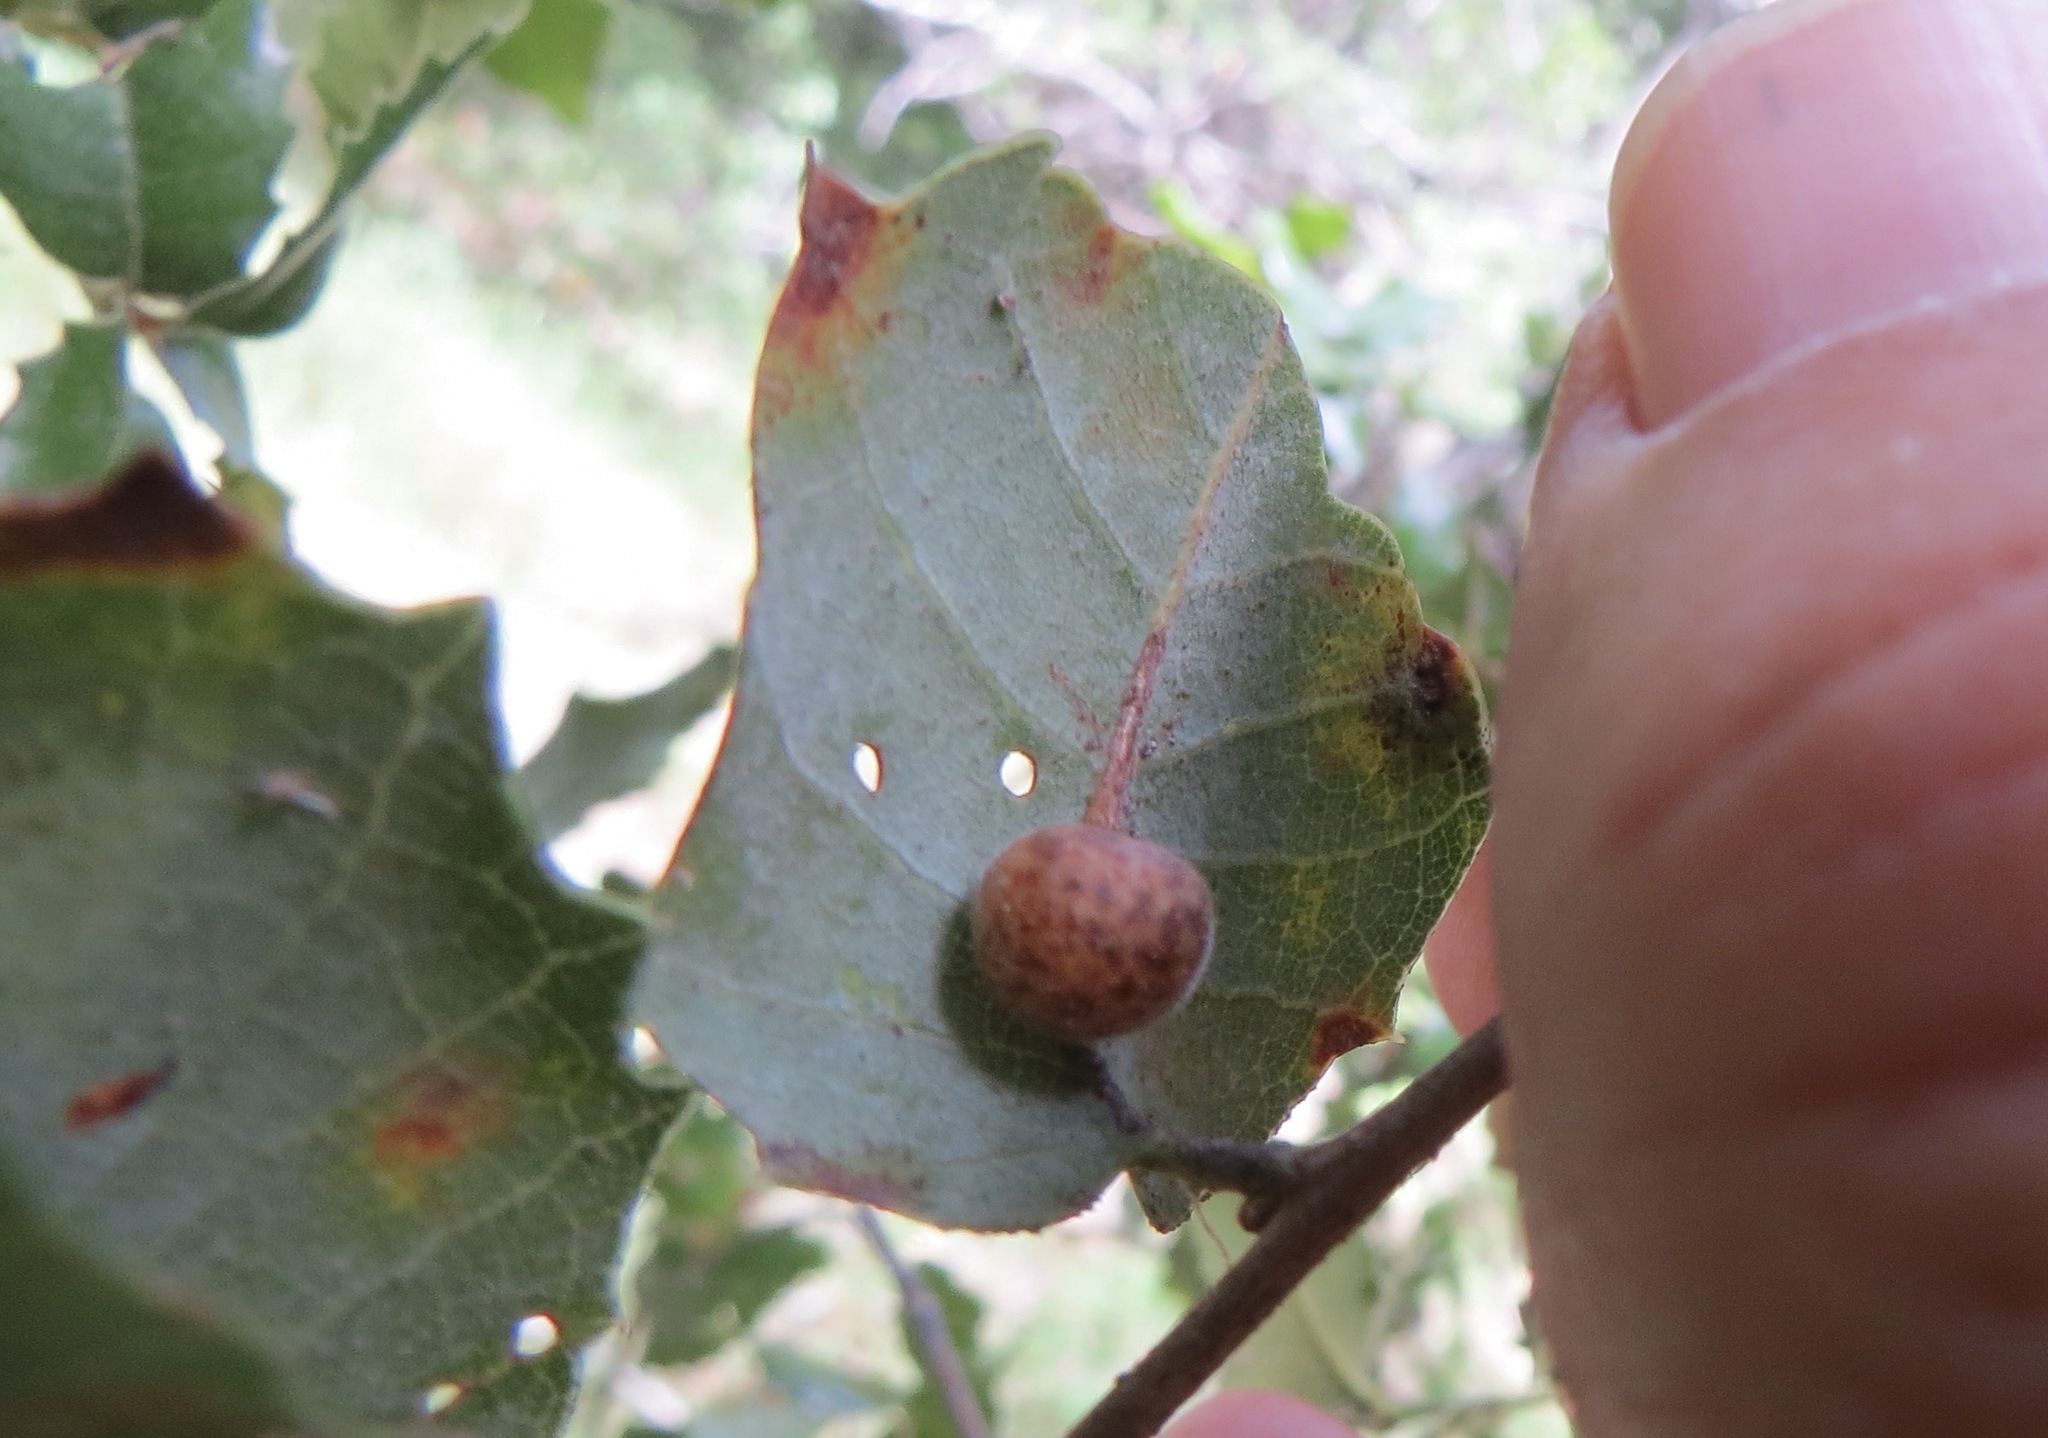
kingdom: Animalia
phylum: Arthropoda
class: Insecta
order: Hymenoptera
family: Cynipidae
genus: Andricus
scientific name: Andricus
